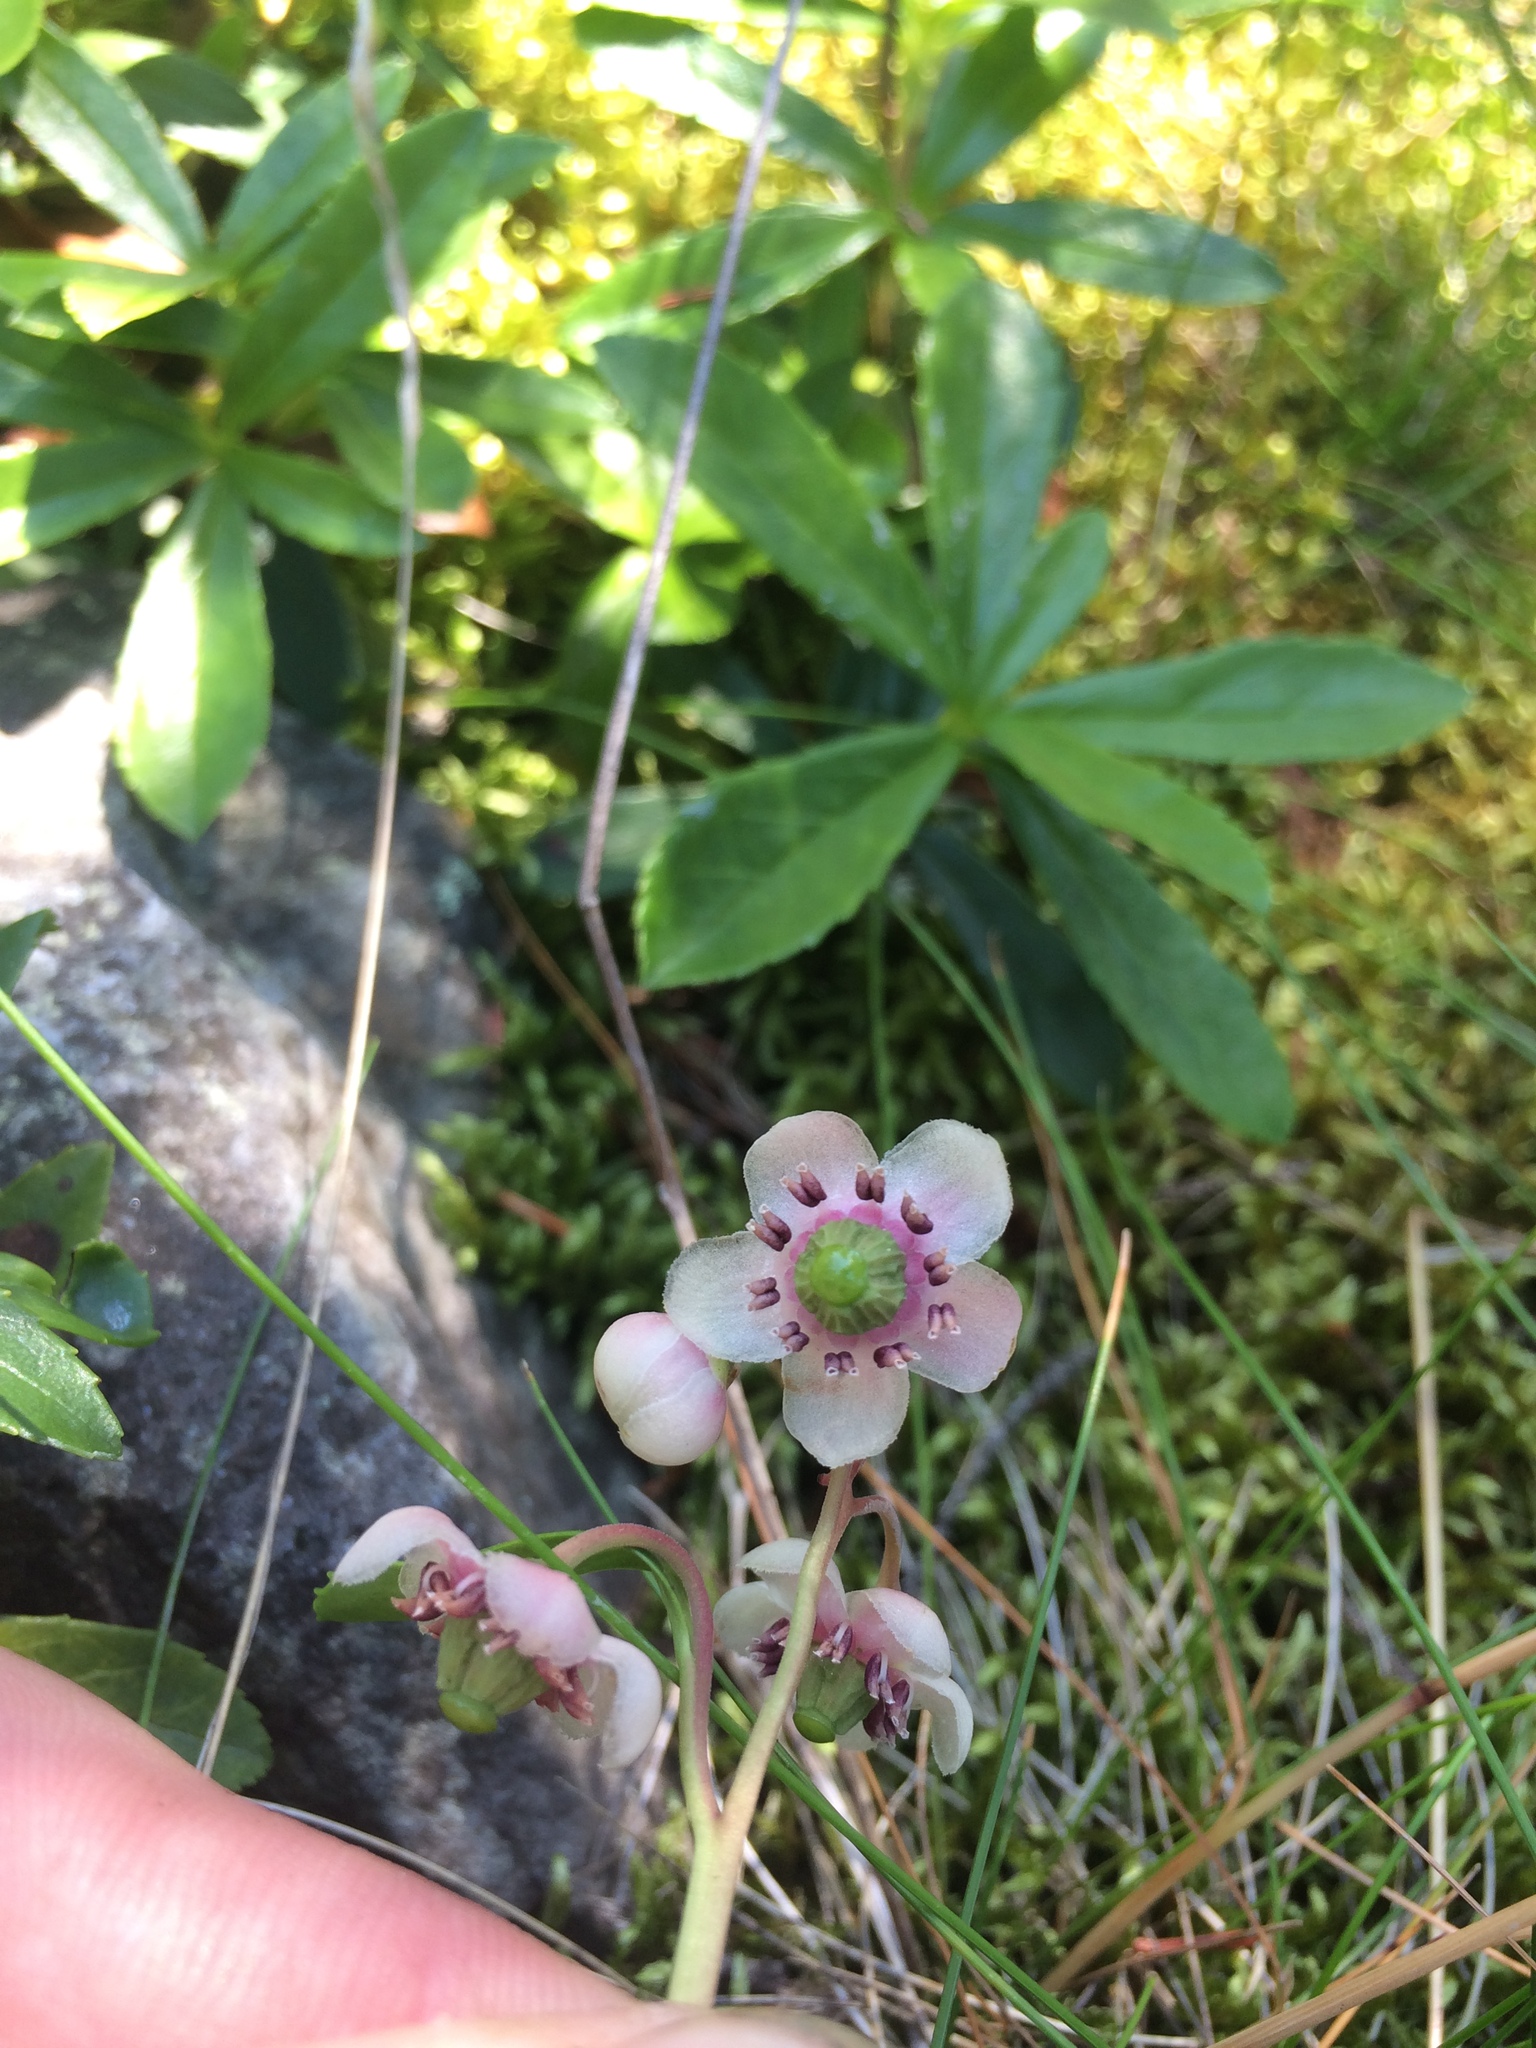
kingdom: Plantae
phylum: Tracheophyta
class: Magnoliopsida
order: Ericales
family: Ericaceae
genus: Chimaphila
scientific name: Chimaphila umbellata
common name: Pipsissewa
